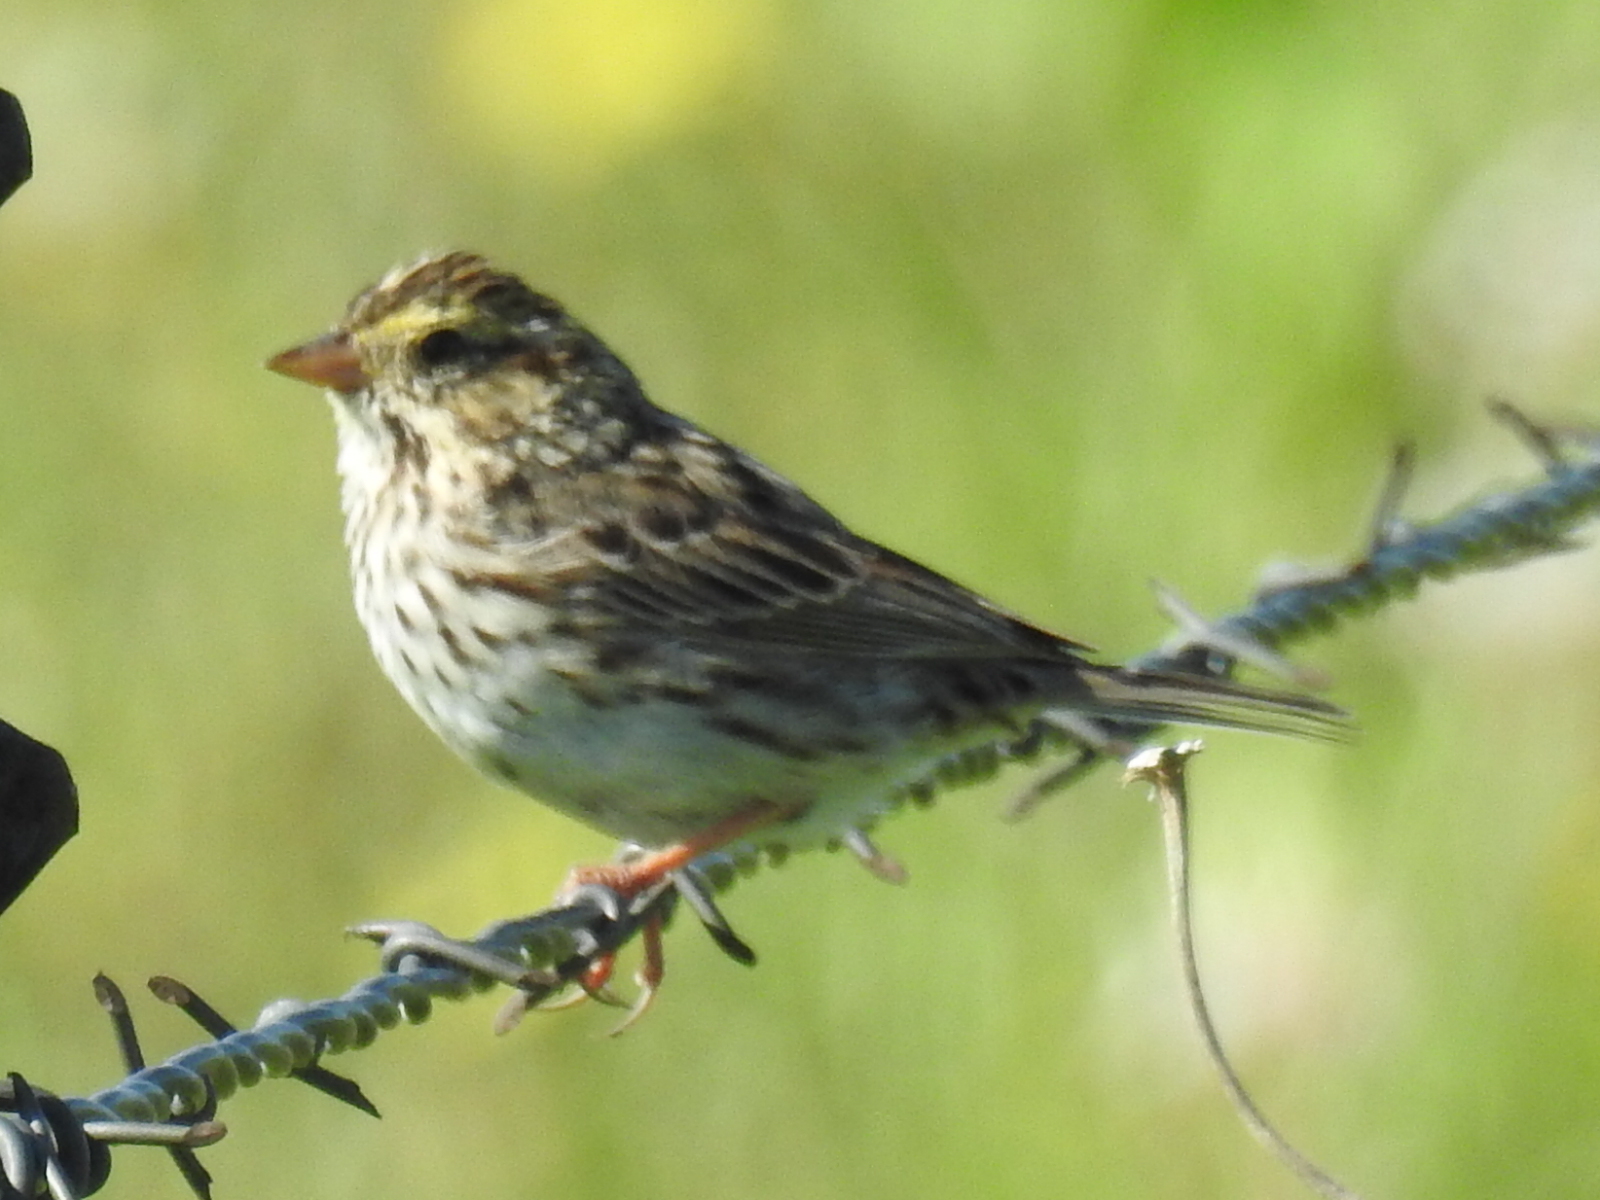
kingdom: Animalia
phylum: Chordata
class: Aves
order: Passeriformes
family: Passerellidae
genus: Passerculus
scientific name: Passerculus sandwichensis
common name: Savannah sparrow
